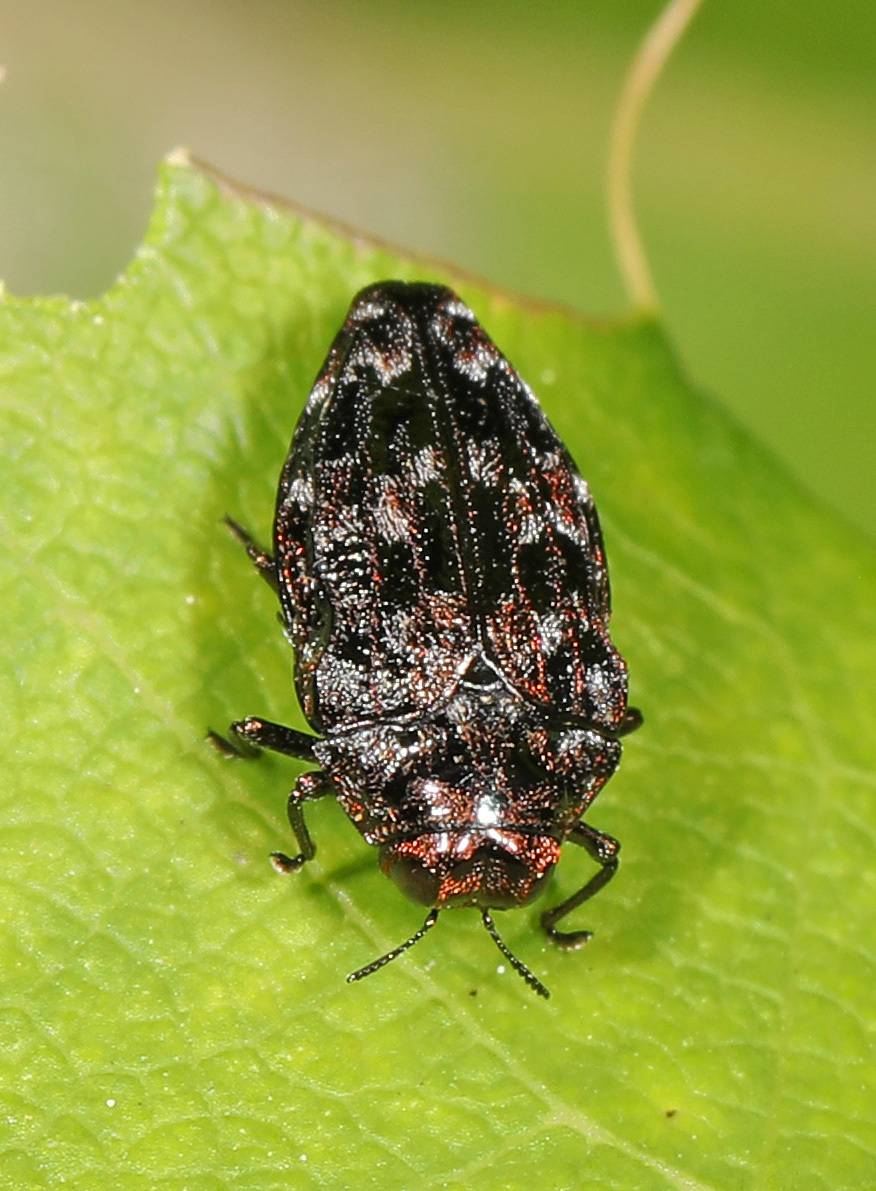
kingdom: Animalia
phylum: Arthropoda
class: Insecta
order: Coleoptera
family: Buprestidae
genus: Brachys
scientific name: Brachys ovatus
